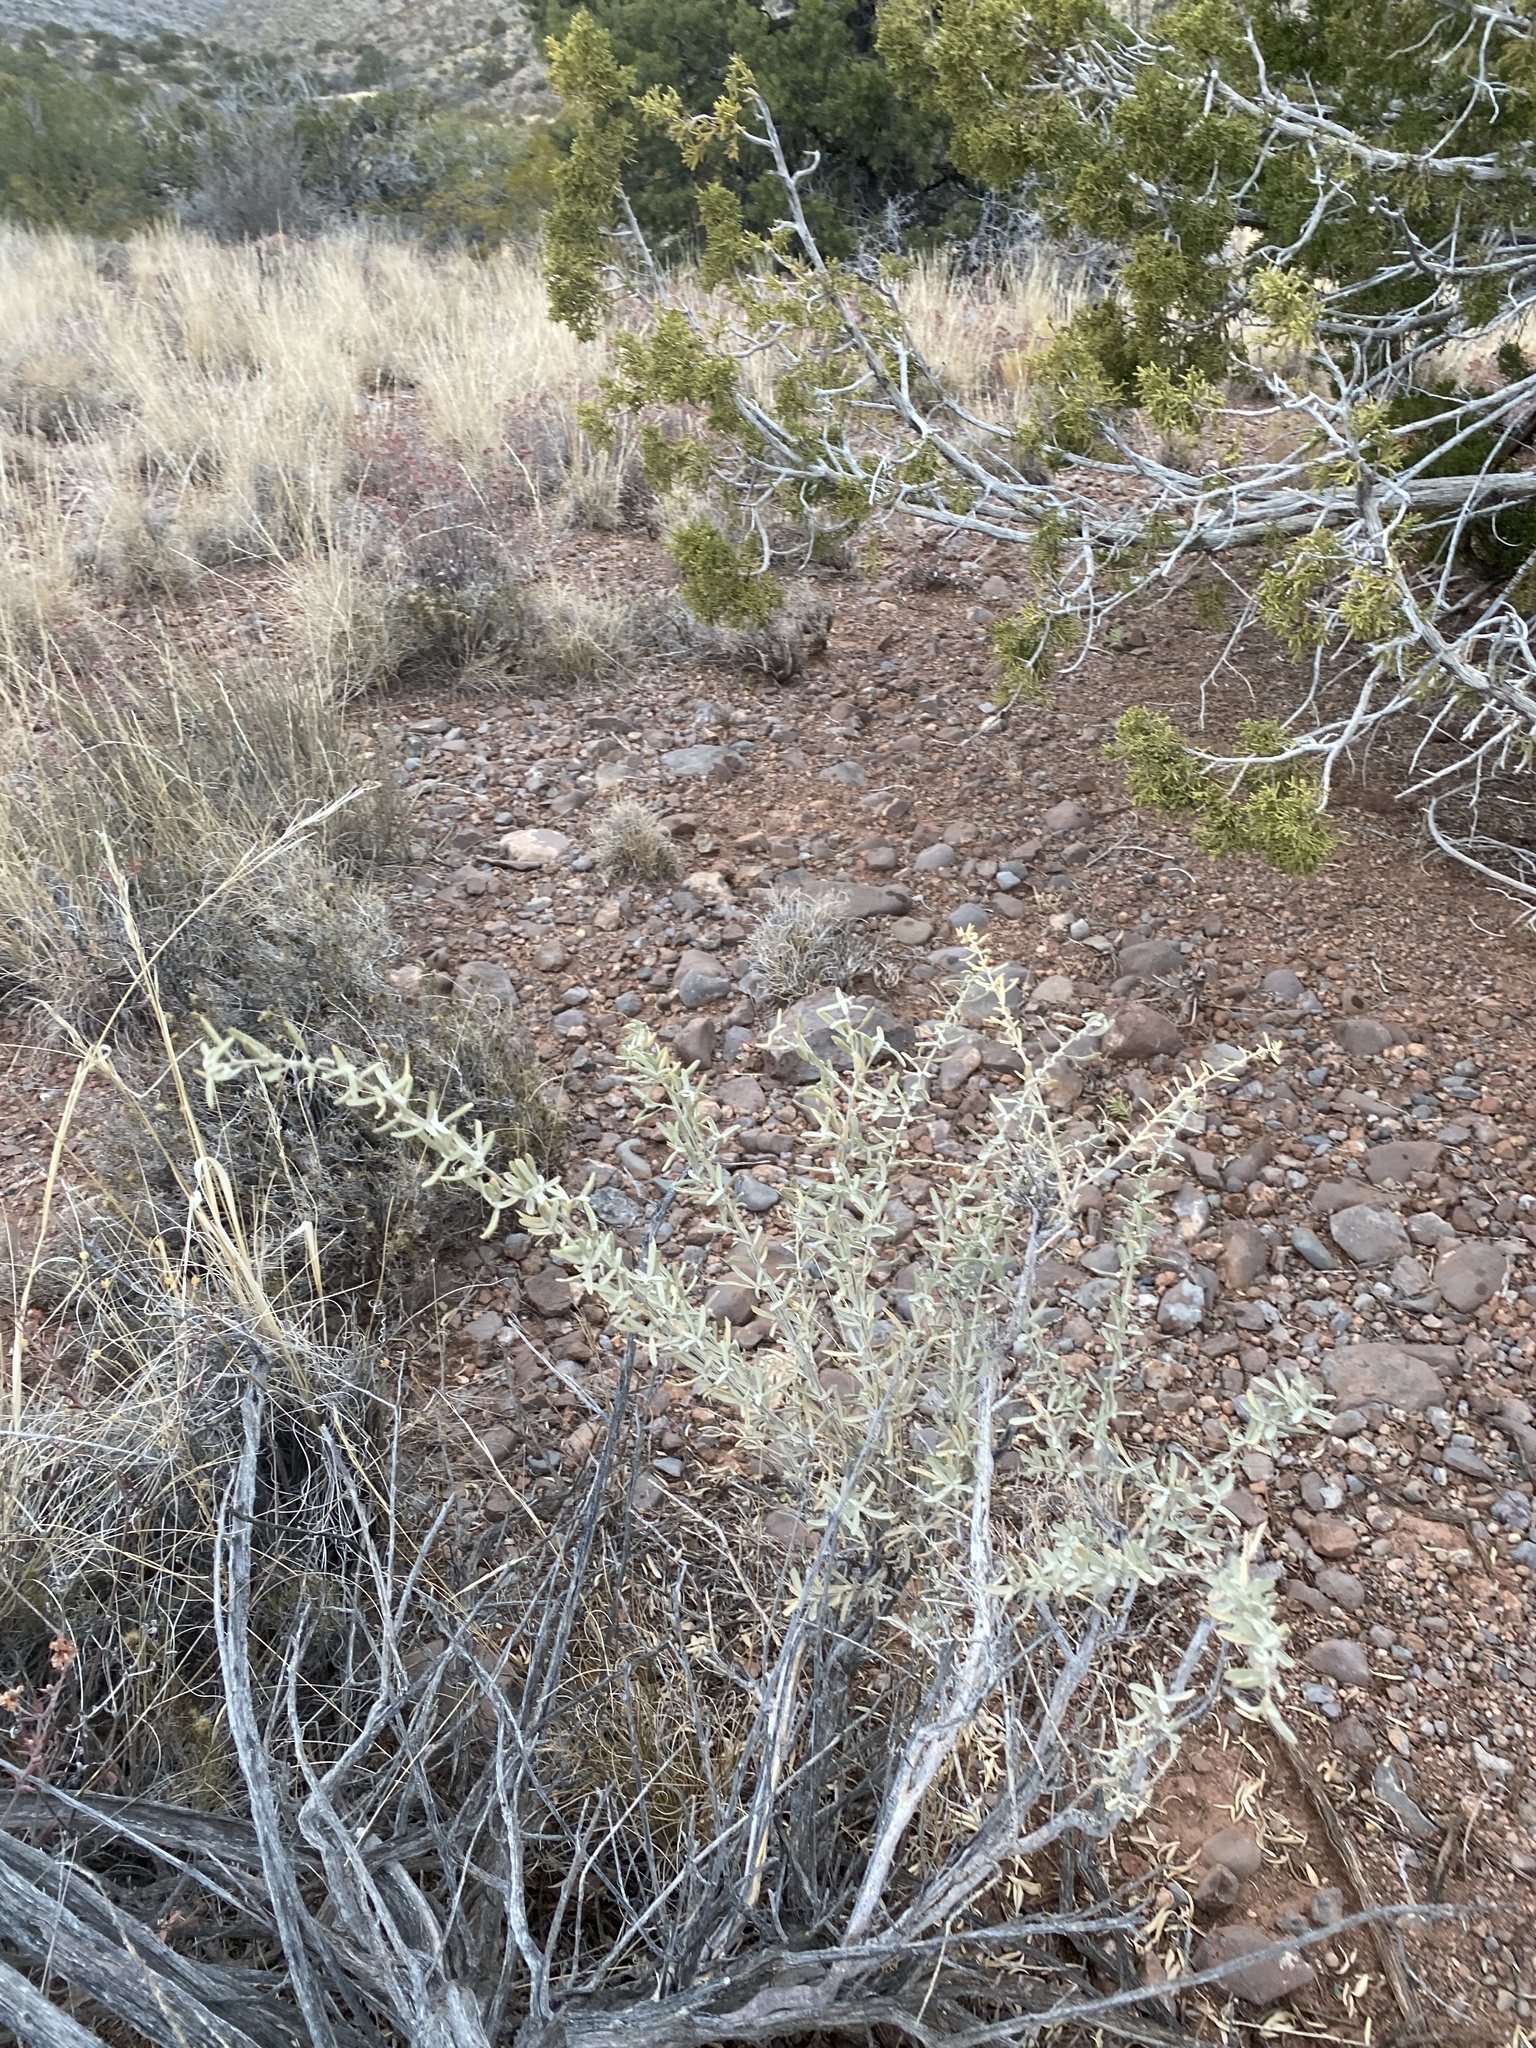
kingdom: Plantae
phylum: Tracheophyta
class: Magnoliopsida
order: Caryophyllales
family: Amaranthaceae
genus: Atriplex
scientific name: Atriplex canescens
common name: Four-wing saltbush
